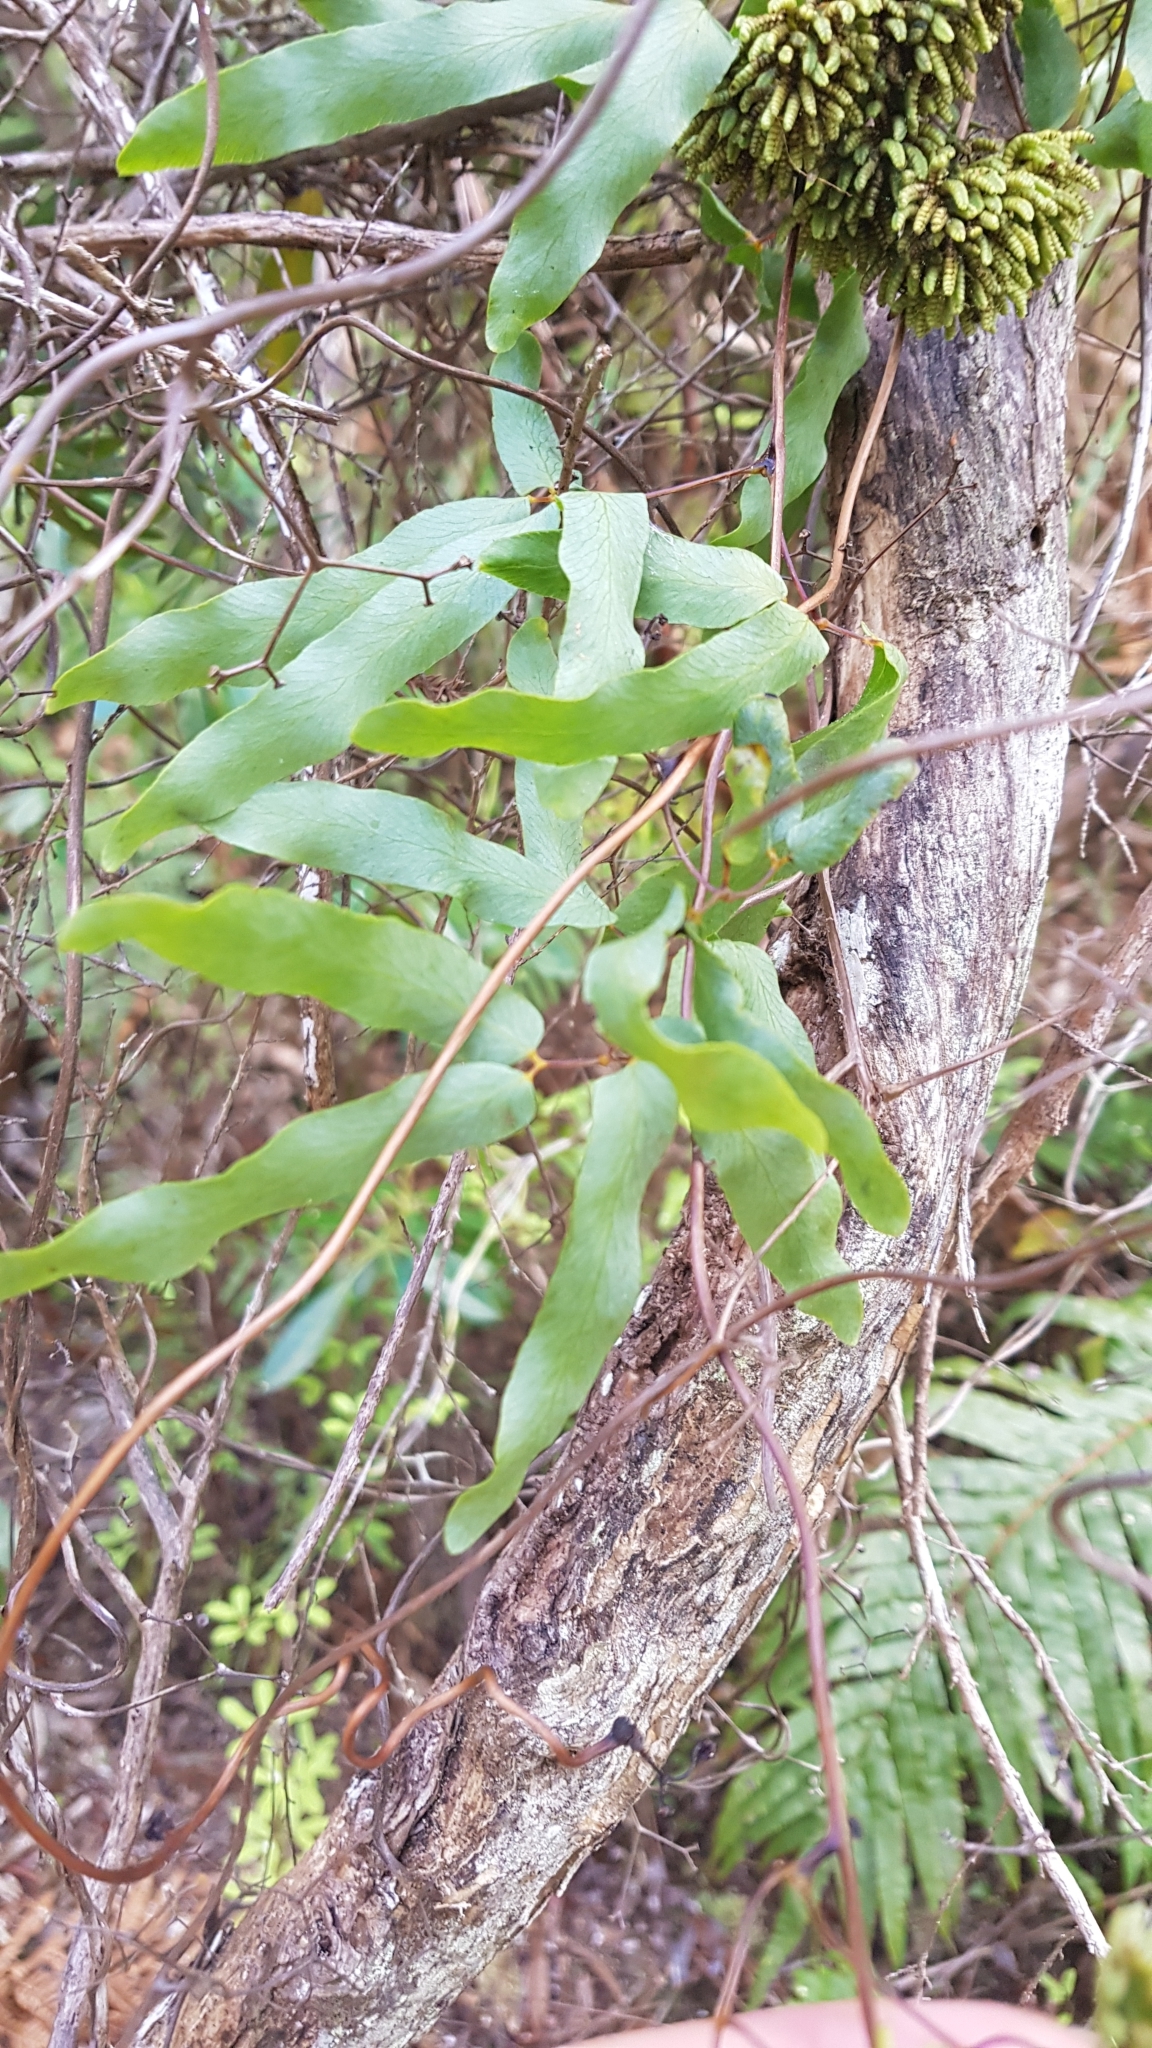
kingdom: Plantae
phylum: Tracheophyta
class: Polypodiopsida
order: Schizaeales
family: Lygodiaceae
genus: Lygodium
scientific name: Lygodium articulatum
